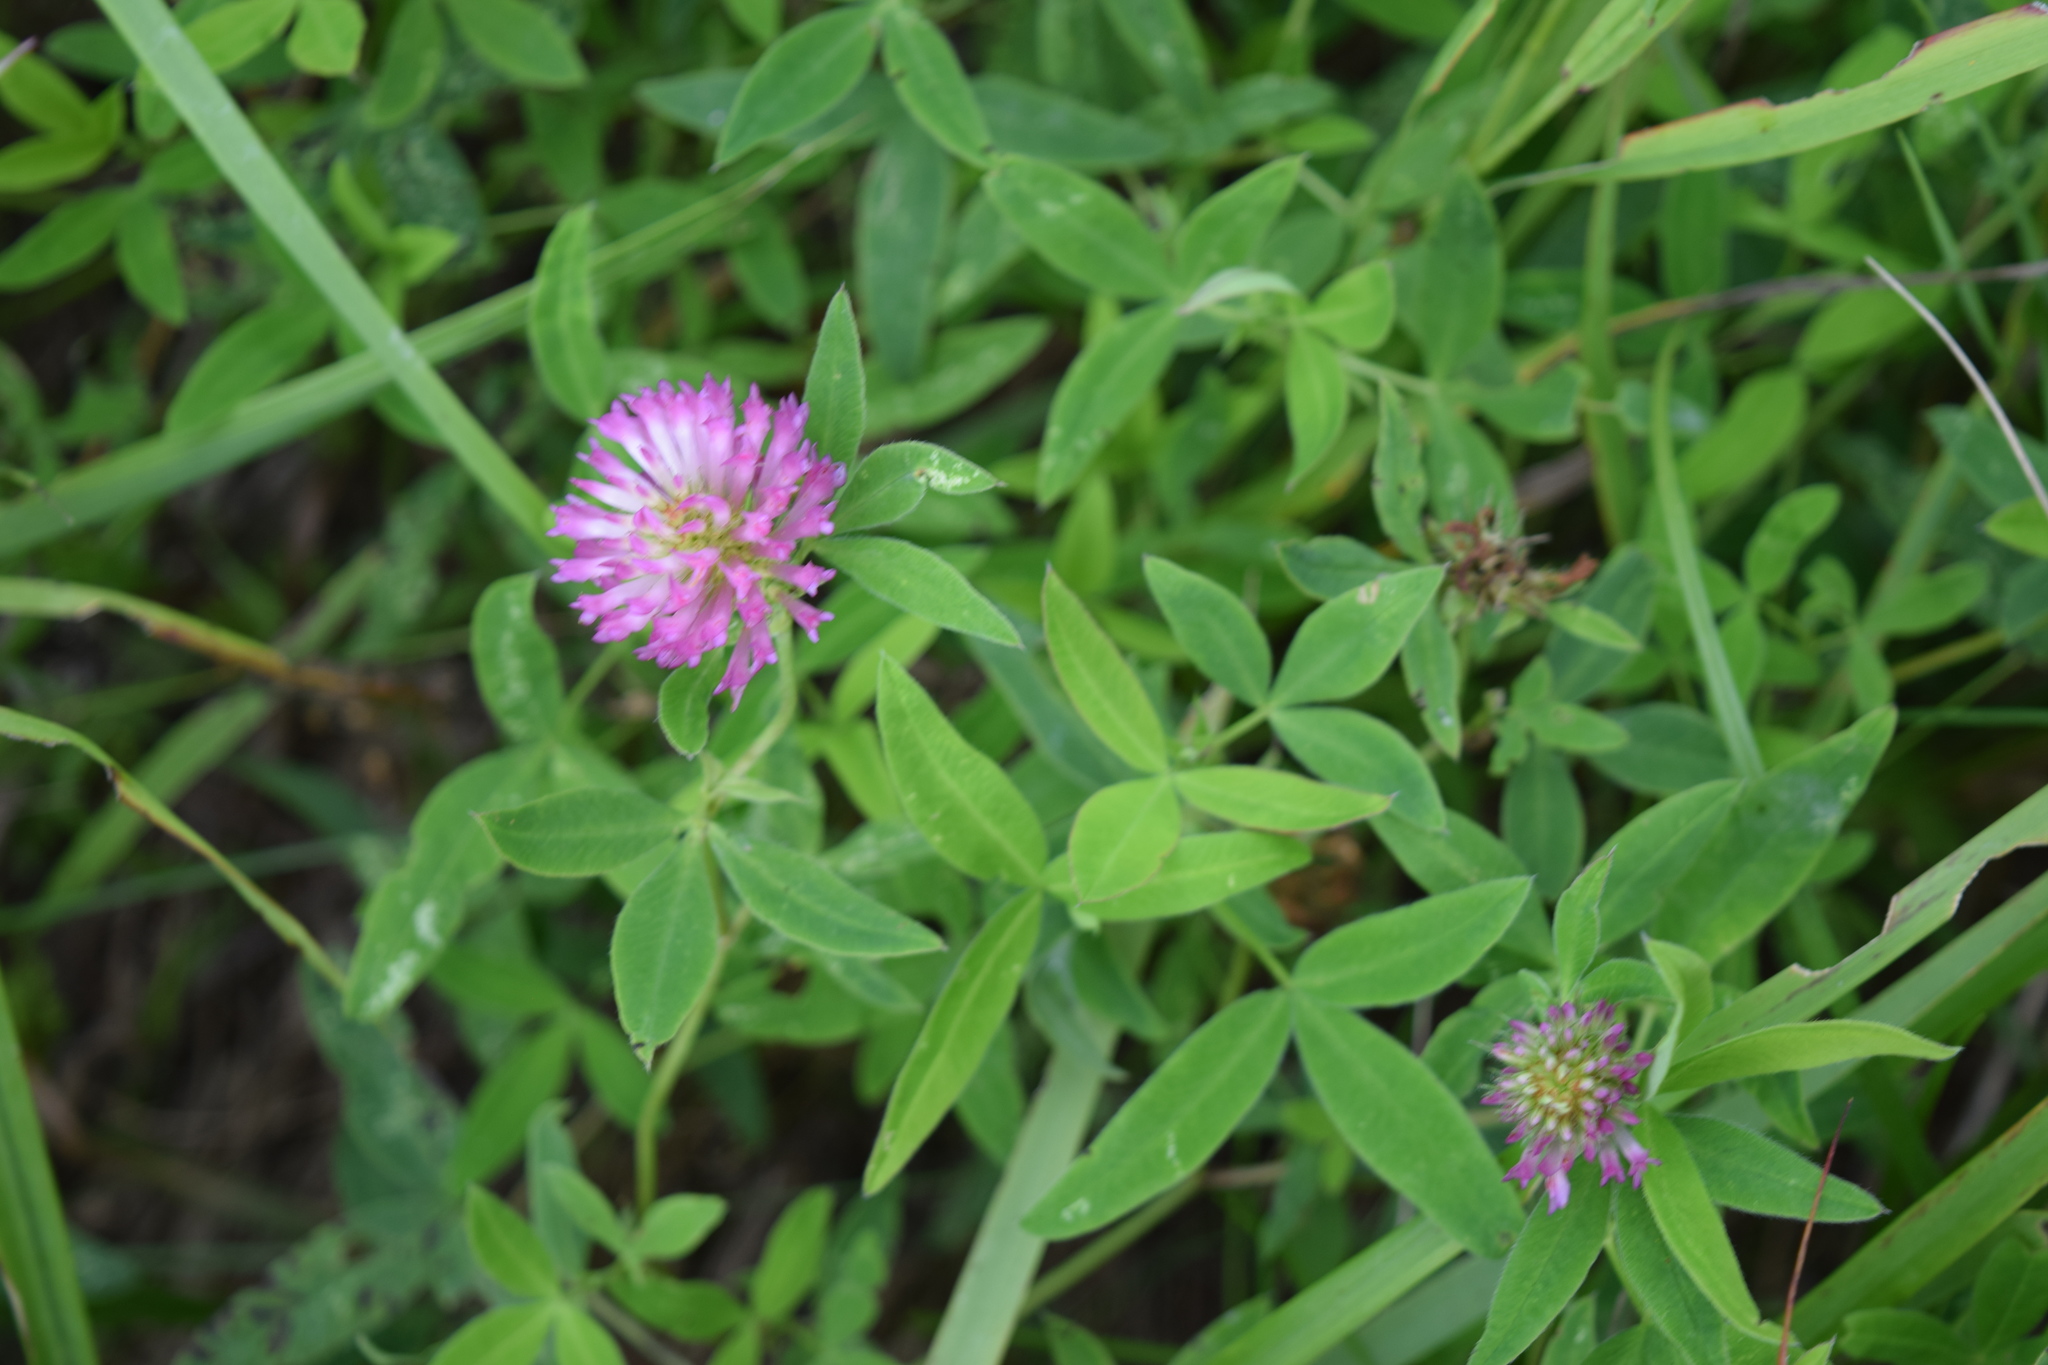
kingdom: Plantae
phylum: Tracheophyta
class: Magnoliopsida
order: Fabales
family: Fabaceae
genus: Trifolium
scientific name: Trifolium medium
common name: Zigzag clover
